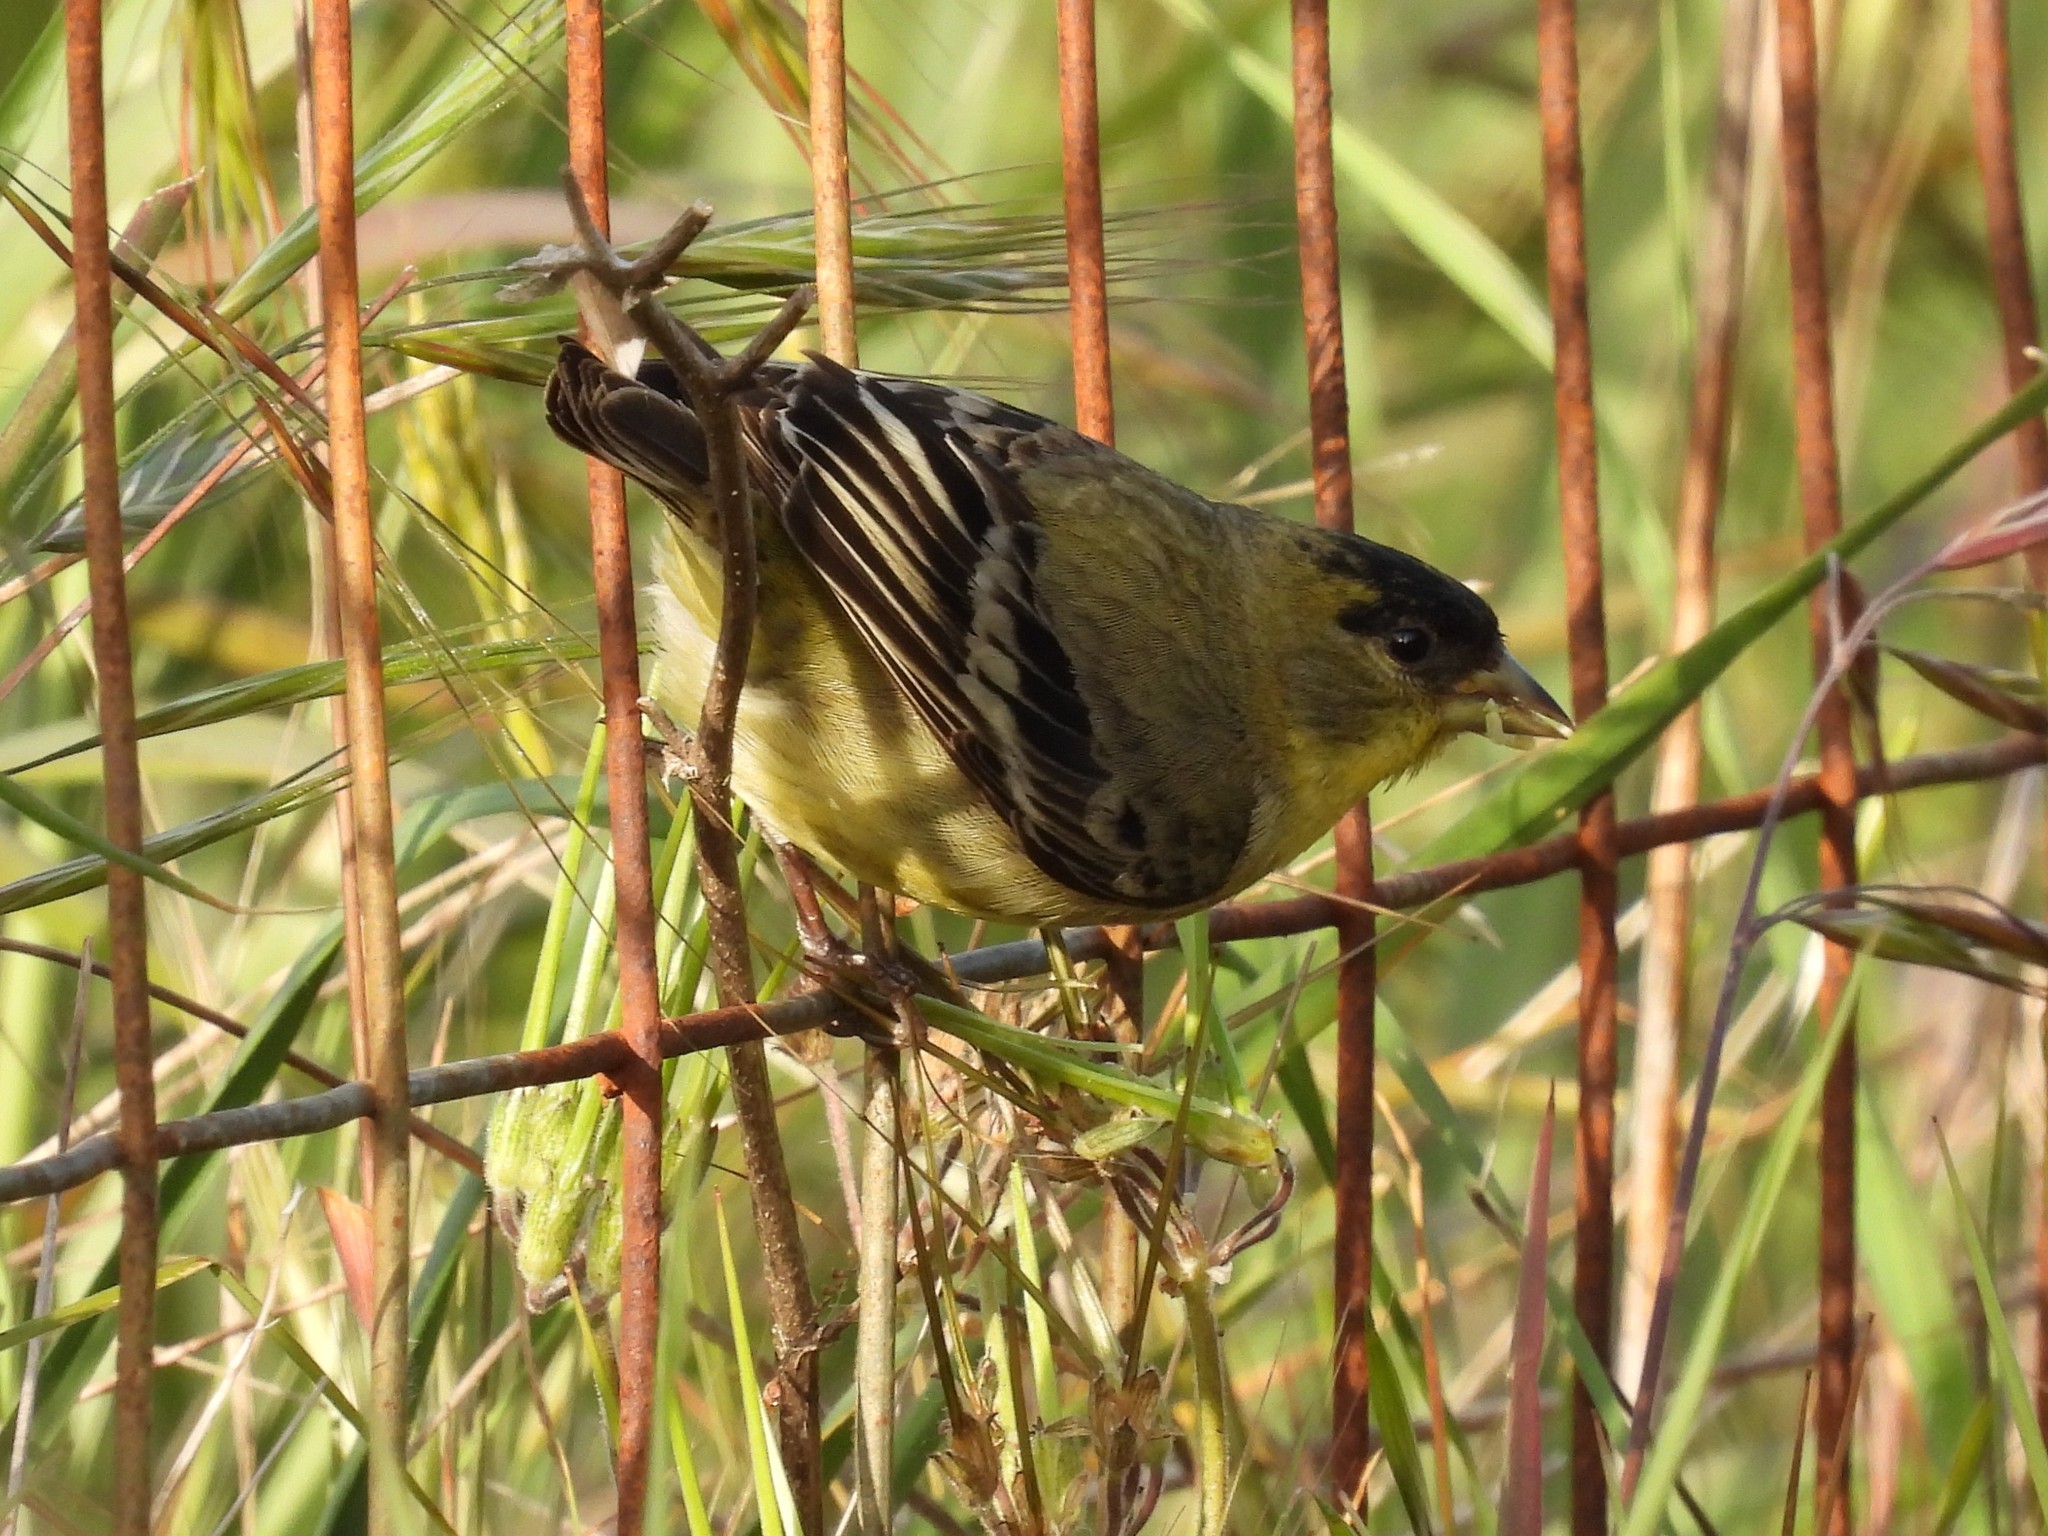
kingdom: Animalia
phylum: Chordata
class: Aves
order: Passeriformes
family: Fringillidae
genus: Spinus
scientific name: Spinus psaltria
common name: Lesser goldfinch
